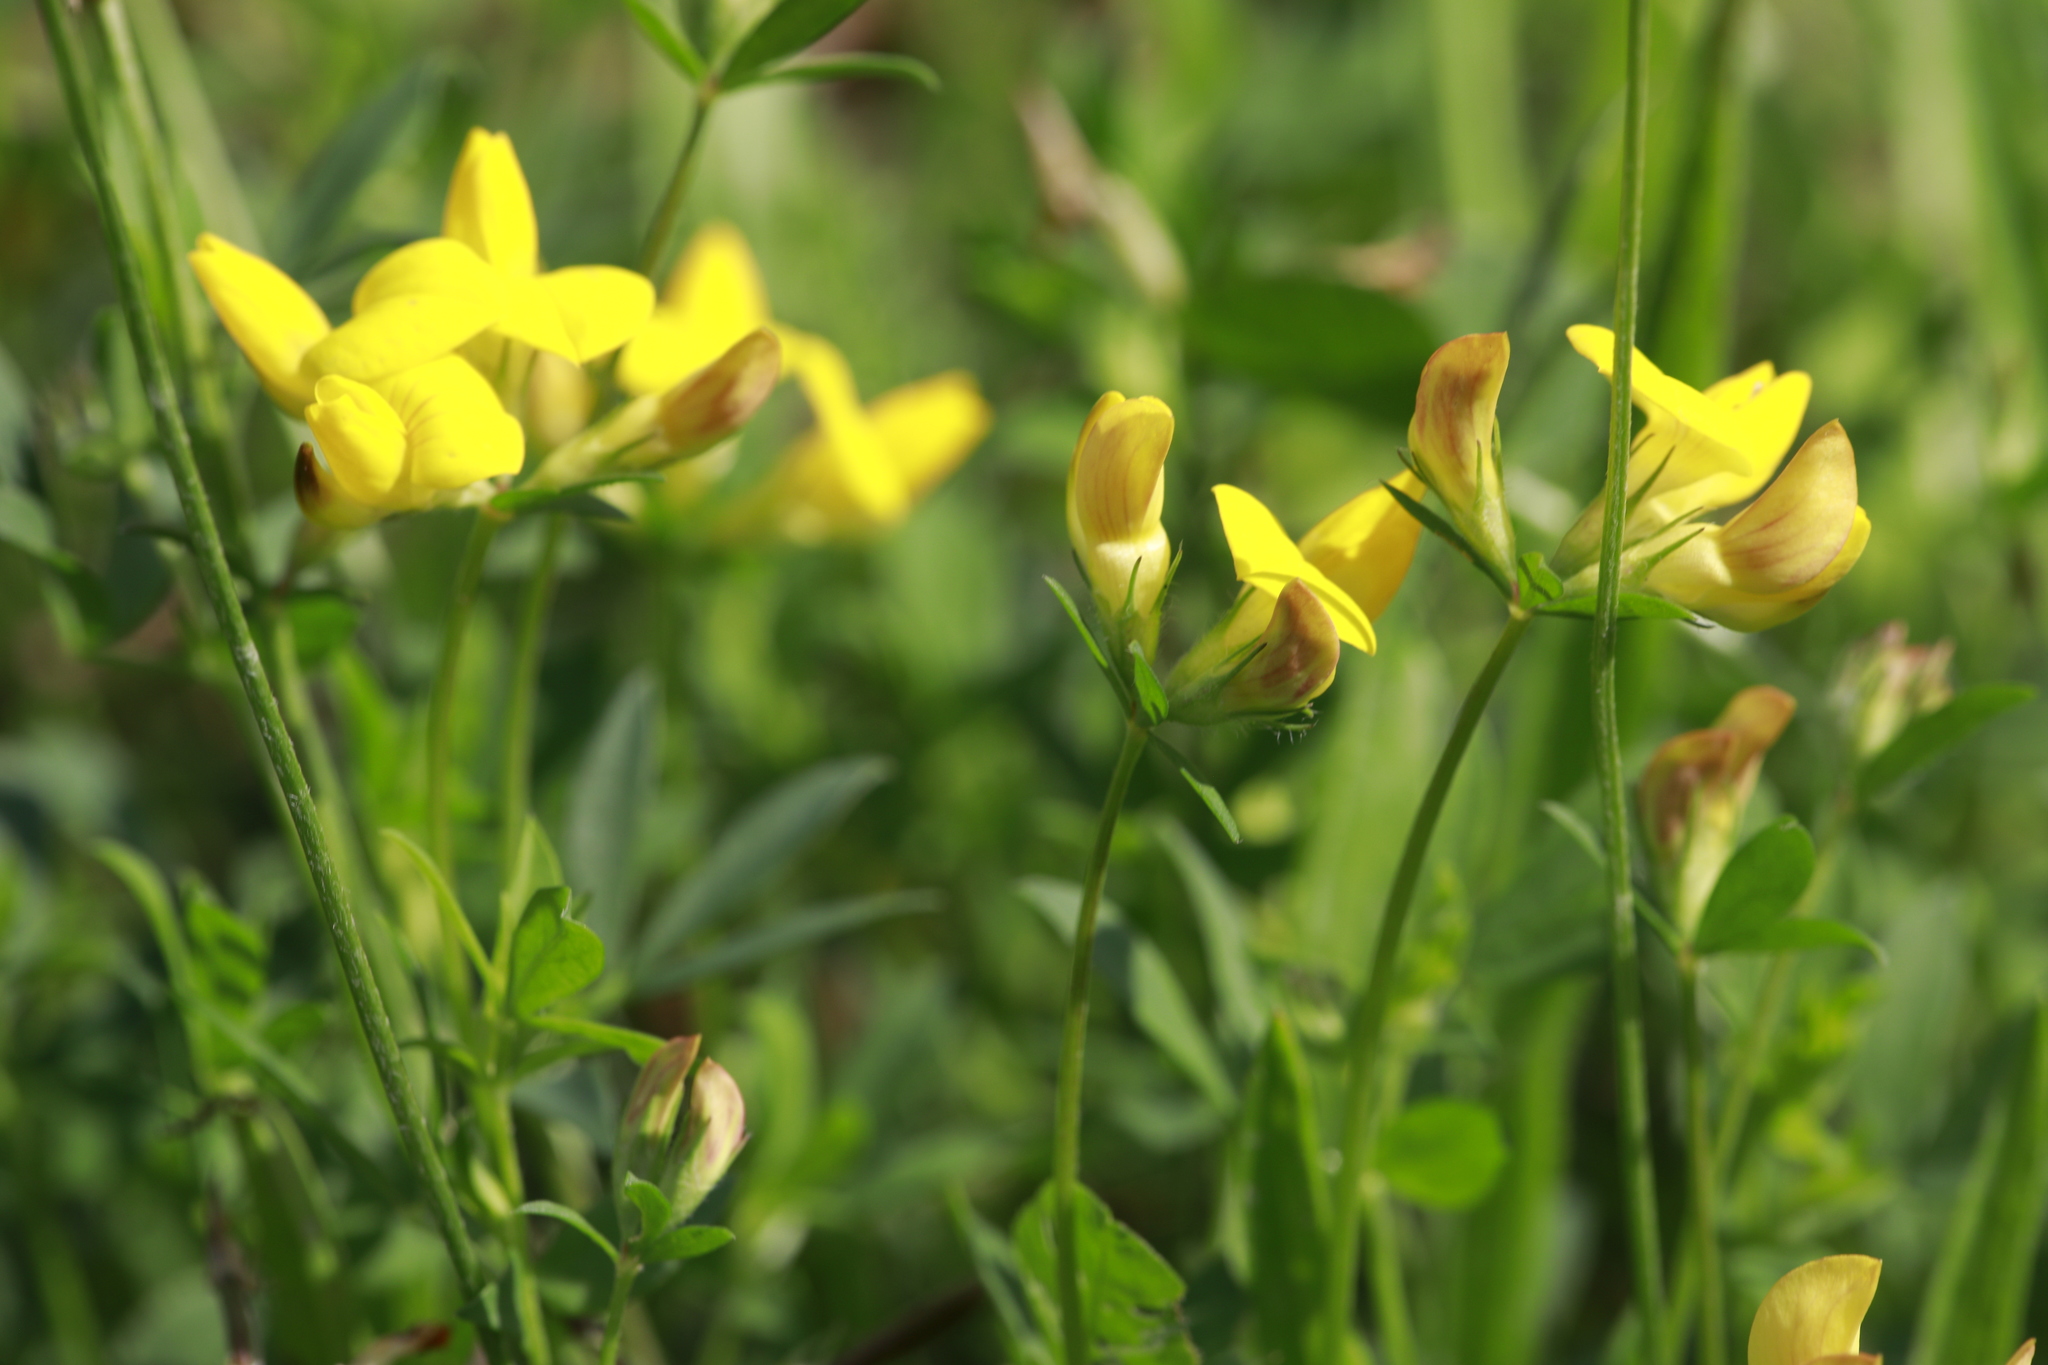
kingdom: Plantae
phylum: Tracheophyta
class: Magnoliopsida
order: Fabales
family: Fabaceae
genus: Lotus
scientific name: Lotus corniculatus
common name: Common bird's-foot-trefoil
